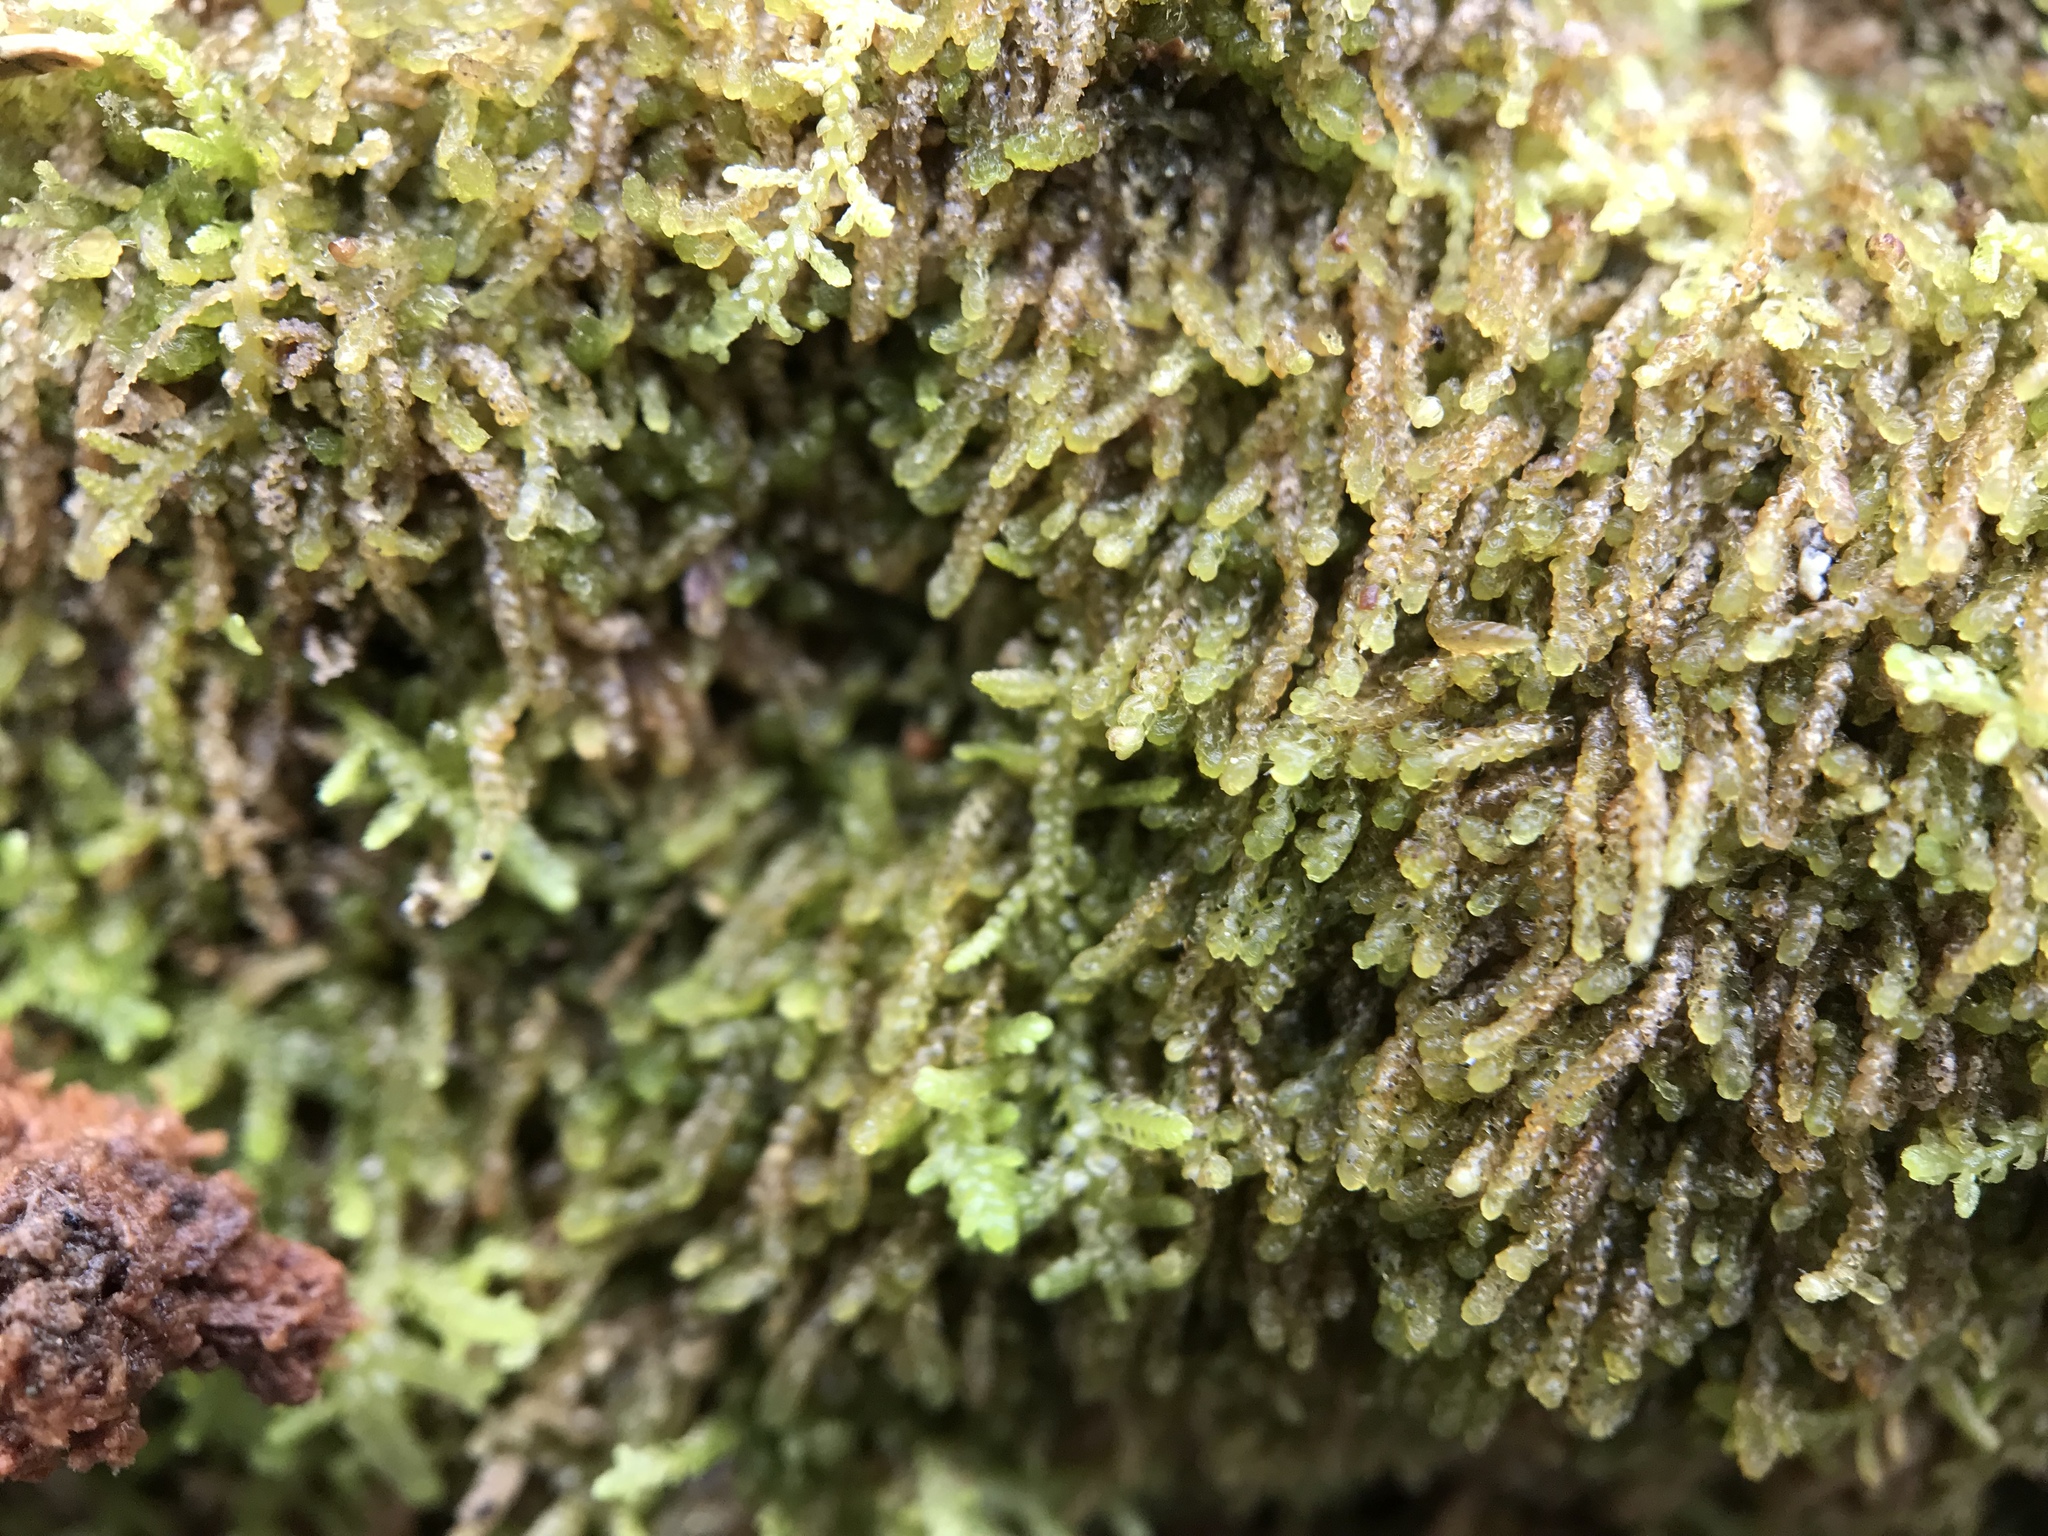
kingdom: Plantae
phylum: Marchantiophyta
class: Jungermanniopsida
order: Jungermanniales
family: Cephaloziaceae
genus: Nowellia
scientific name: Nowellia curvifolia
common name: Wood rustwort
